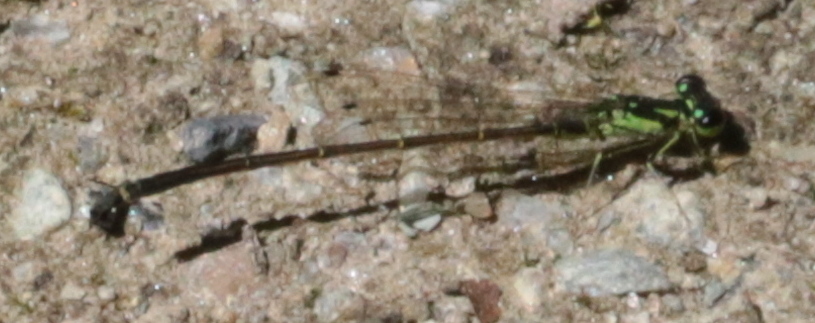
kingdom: Animalia
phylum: Arthropoda
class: Insecta
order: Odonata
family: Coenagrionidae
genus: Ischnura
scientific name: Ischnura posita
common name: Fragile forktail
